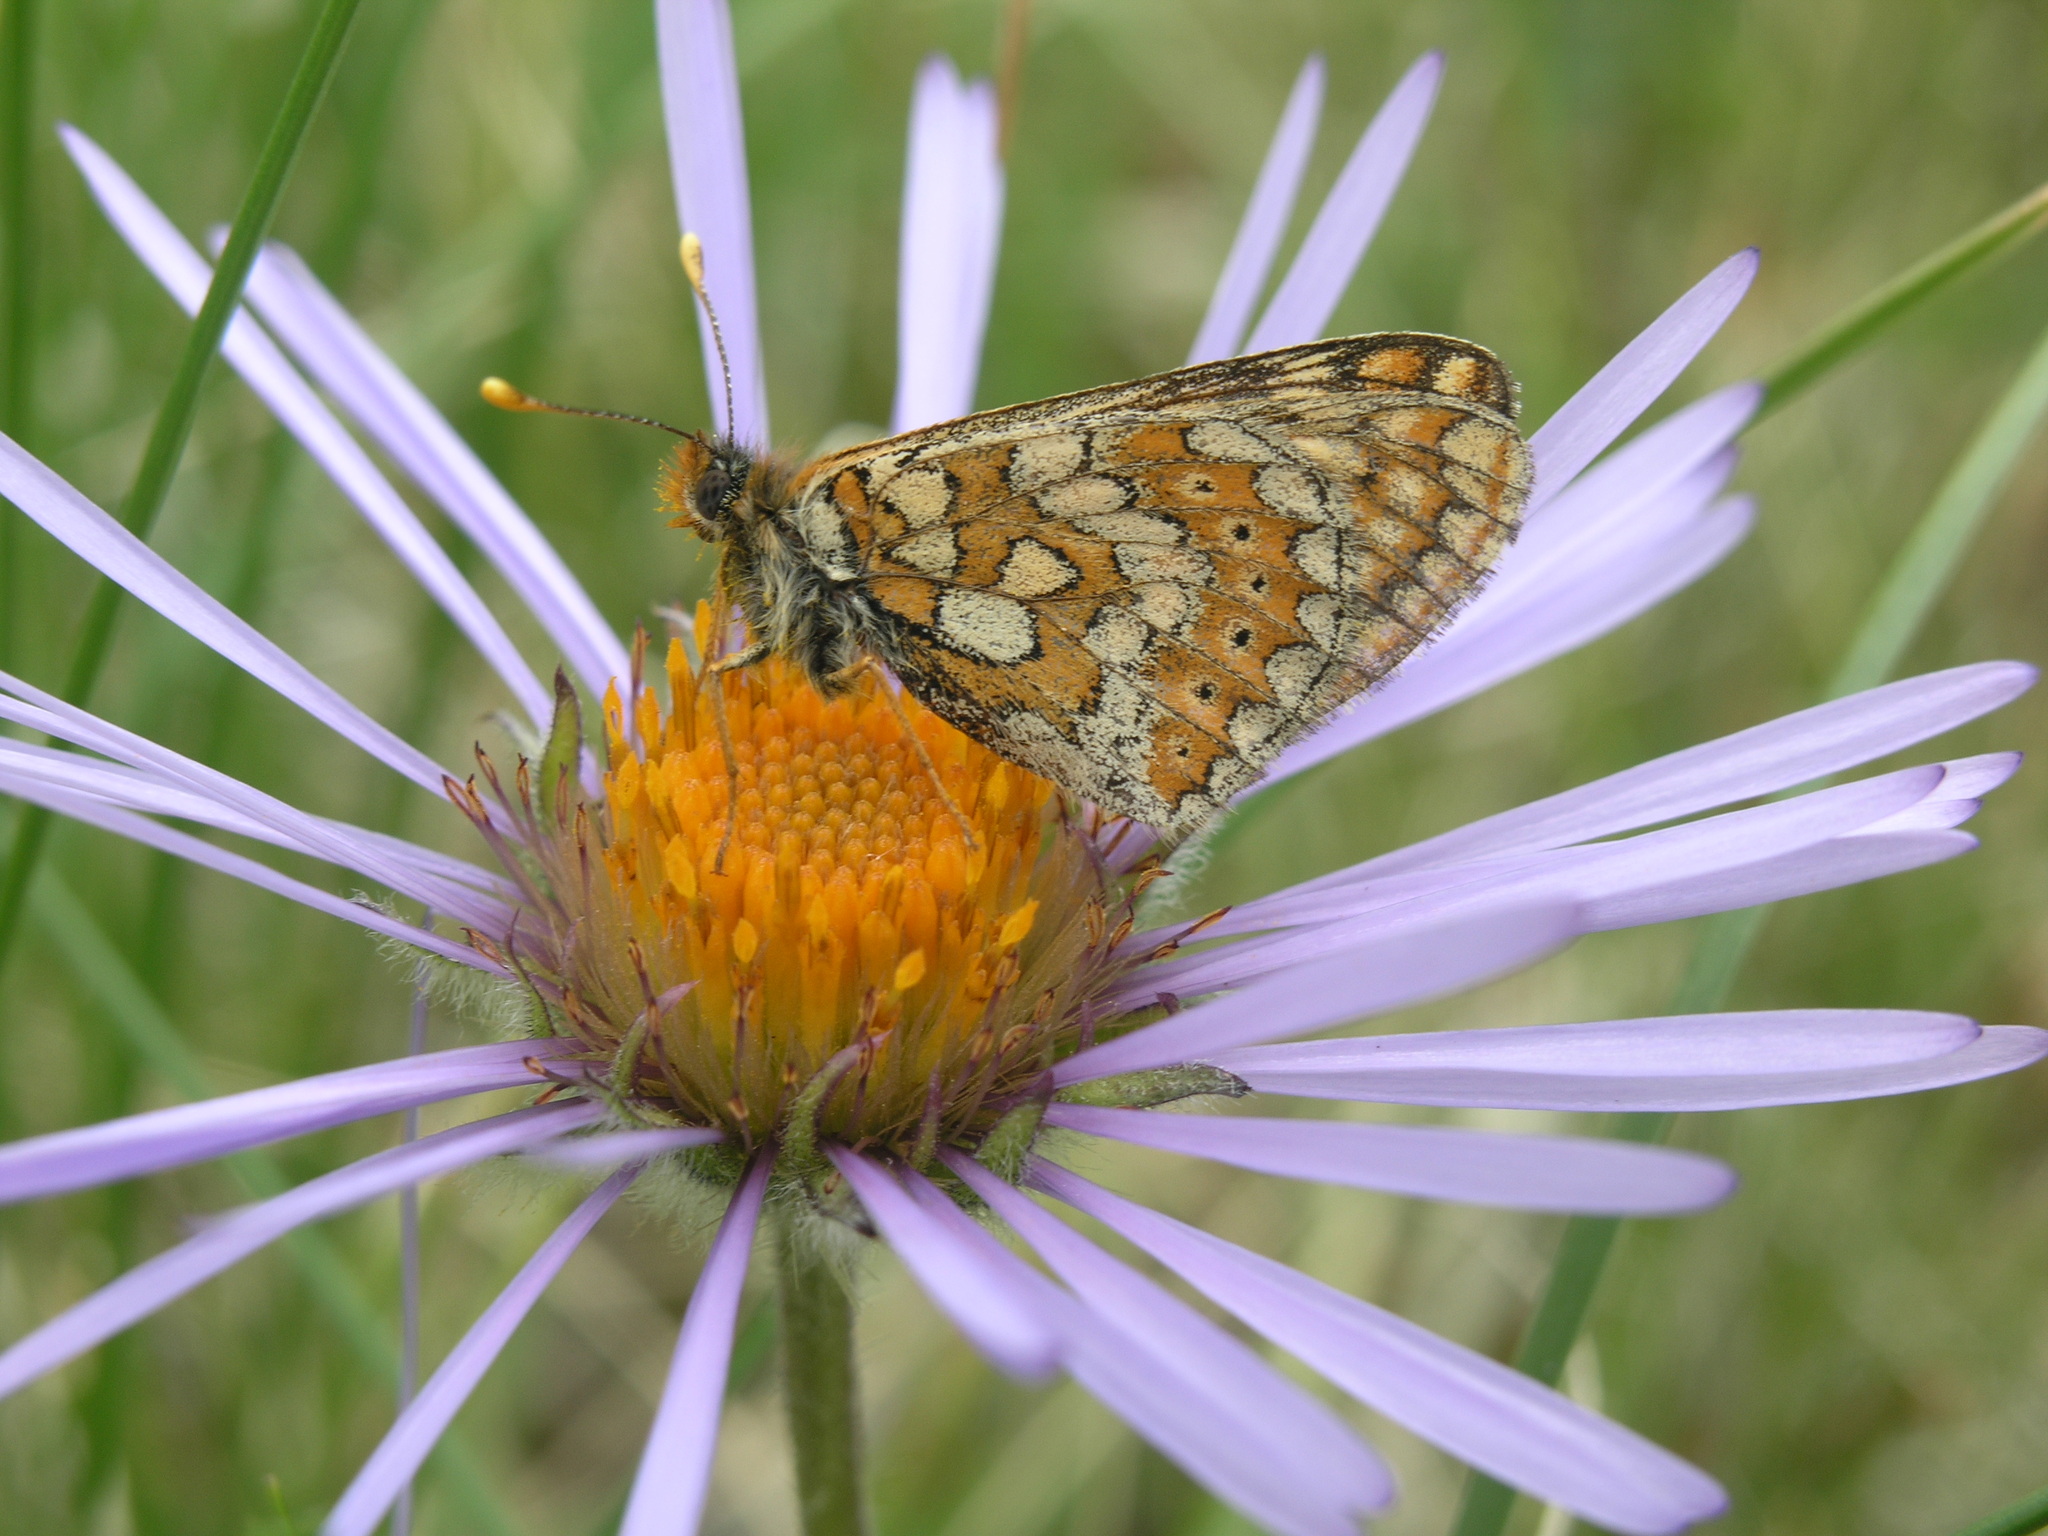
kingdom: Plantae
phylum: Tracheophyta
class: Magnoliopsida
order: Asterales
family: Asteraceae
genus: Tibetiodes
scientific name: Tibetiodes flaccida
